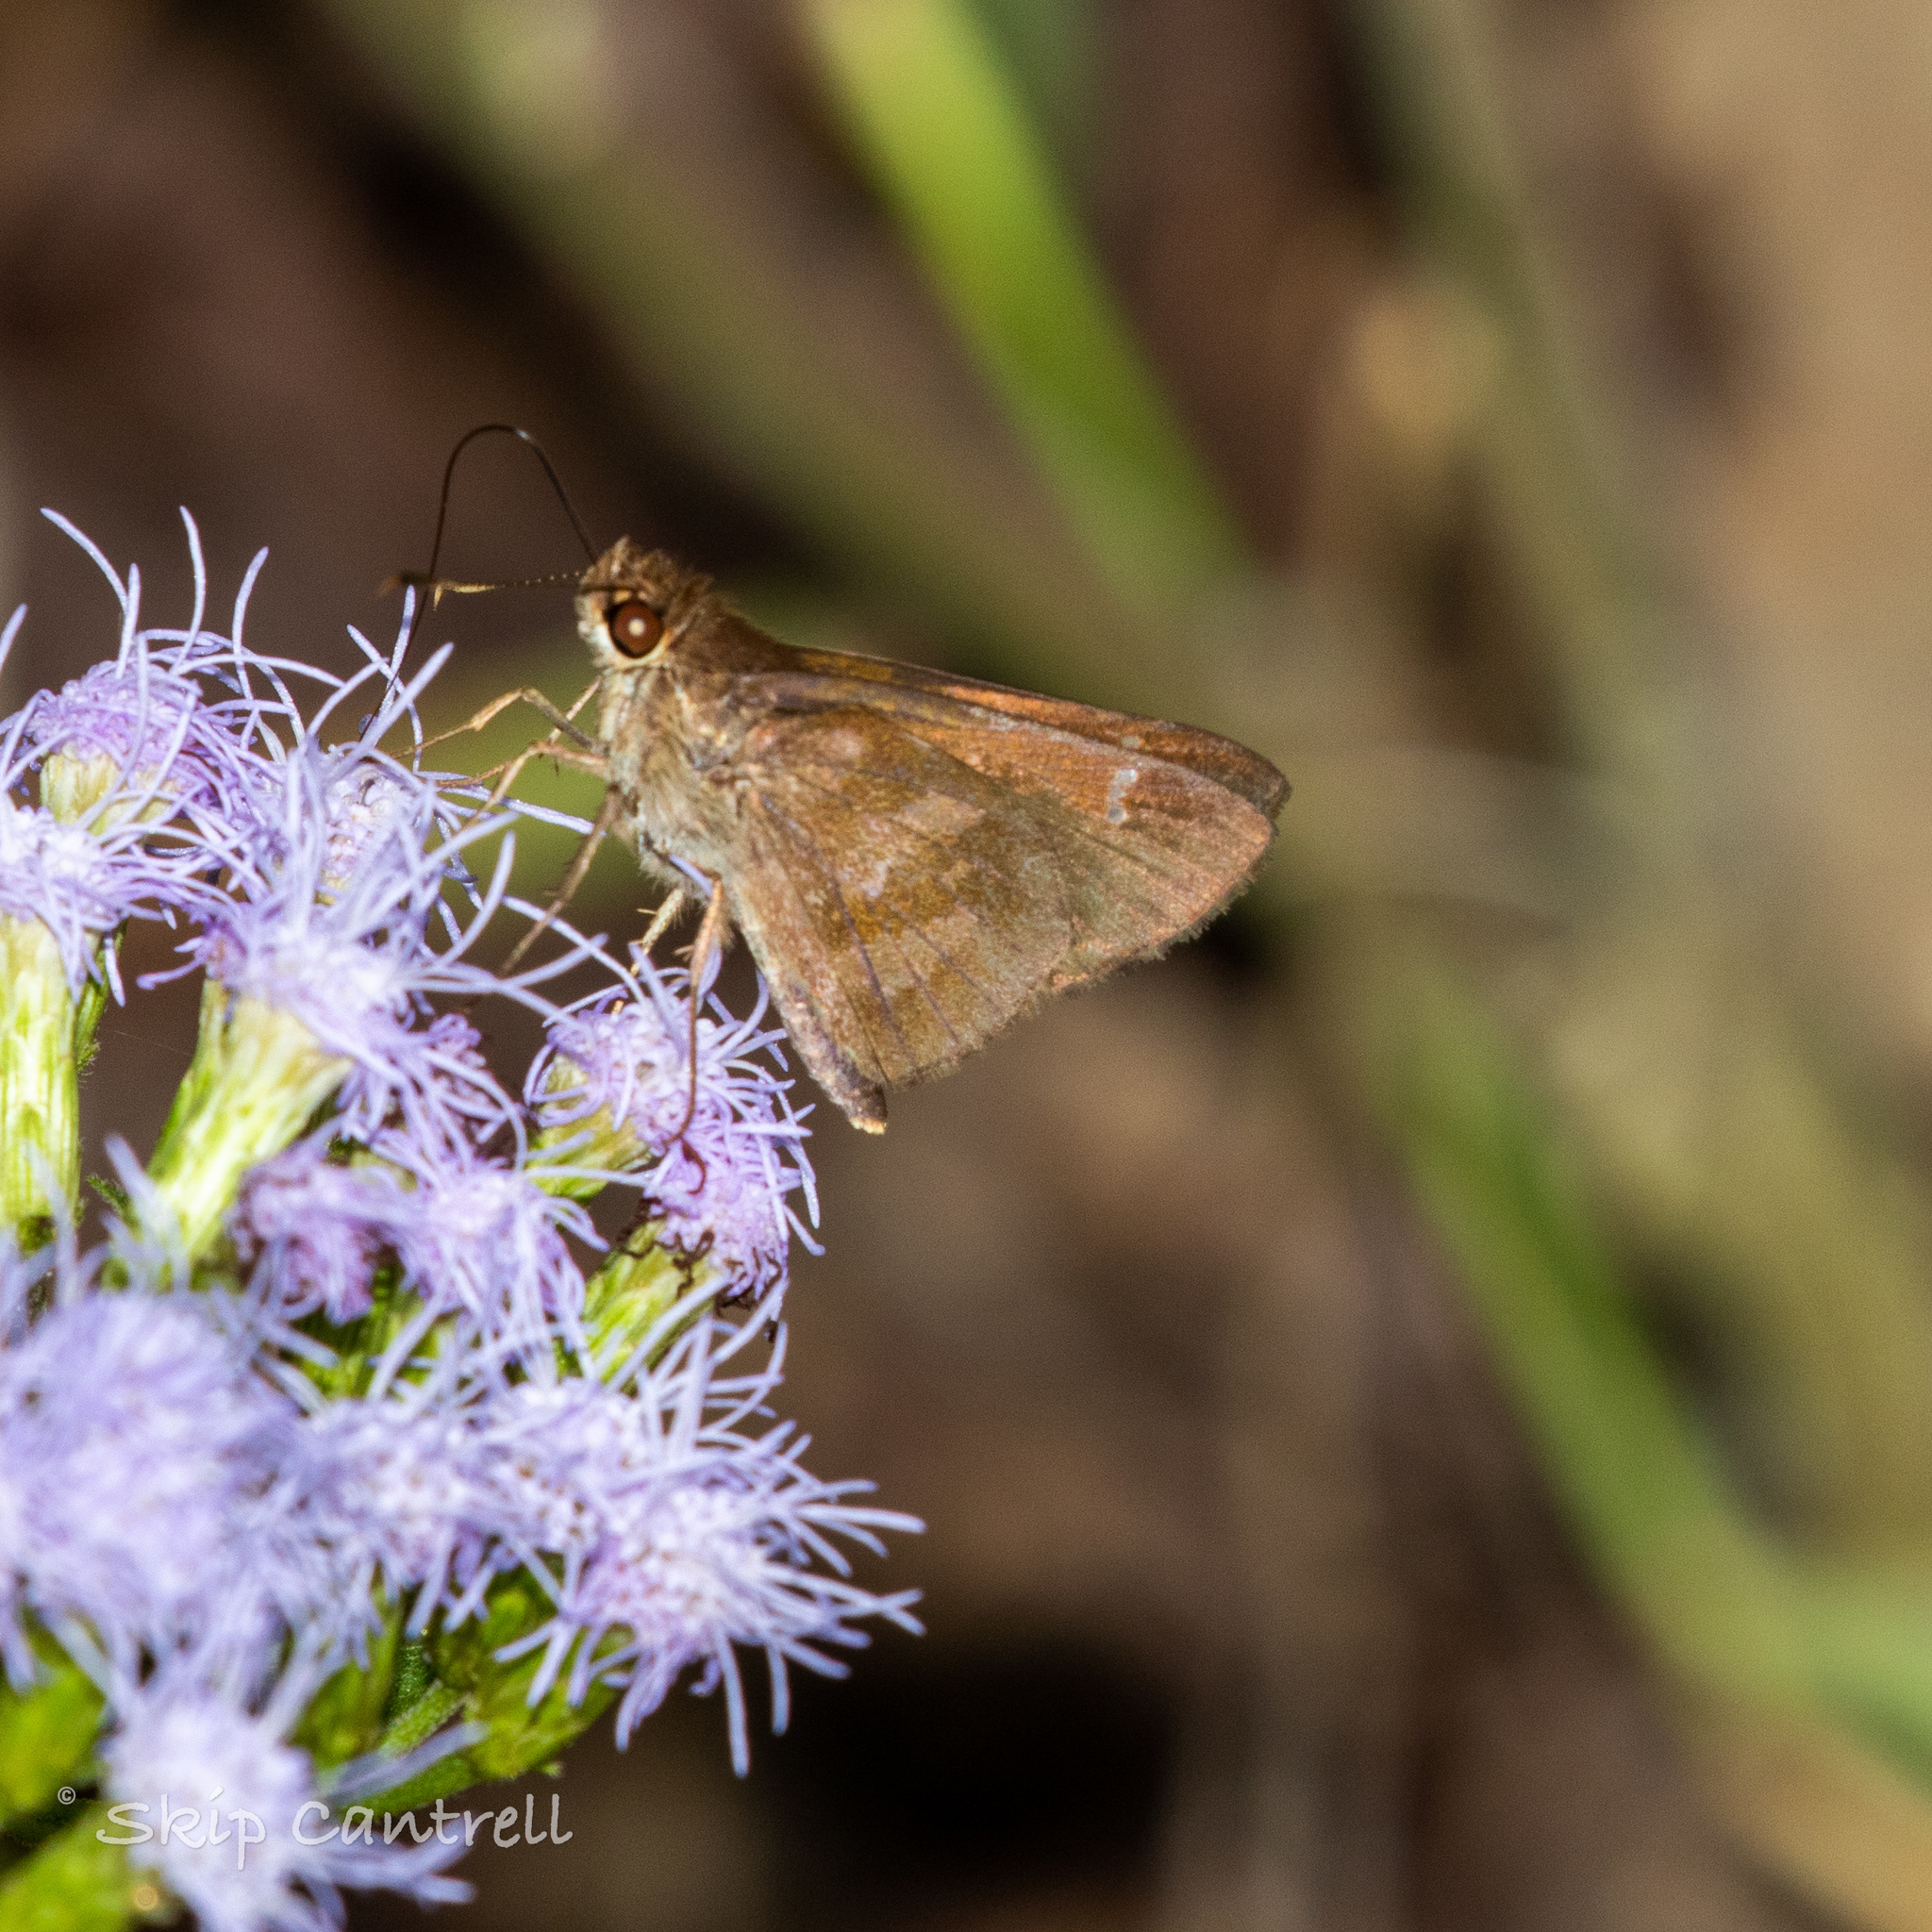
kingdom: Animalia
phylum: Arthropoda
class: Insecta
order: Lepidoptera
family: Hesperiidae
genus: Cymaenes
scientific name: Cymaenes
